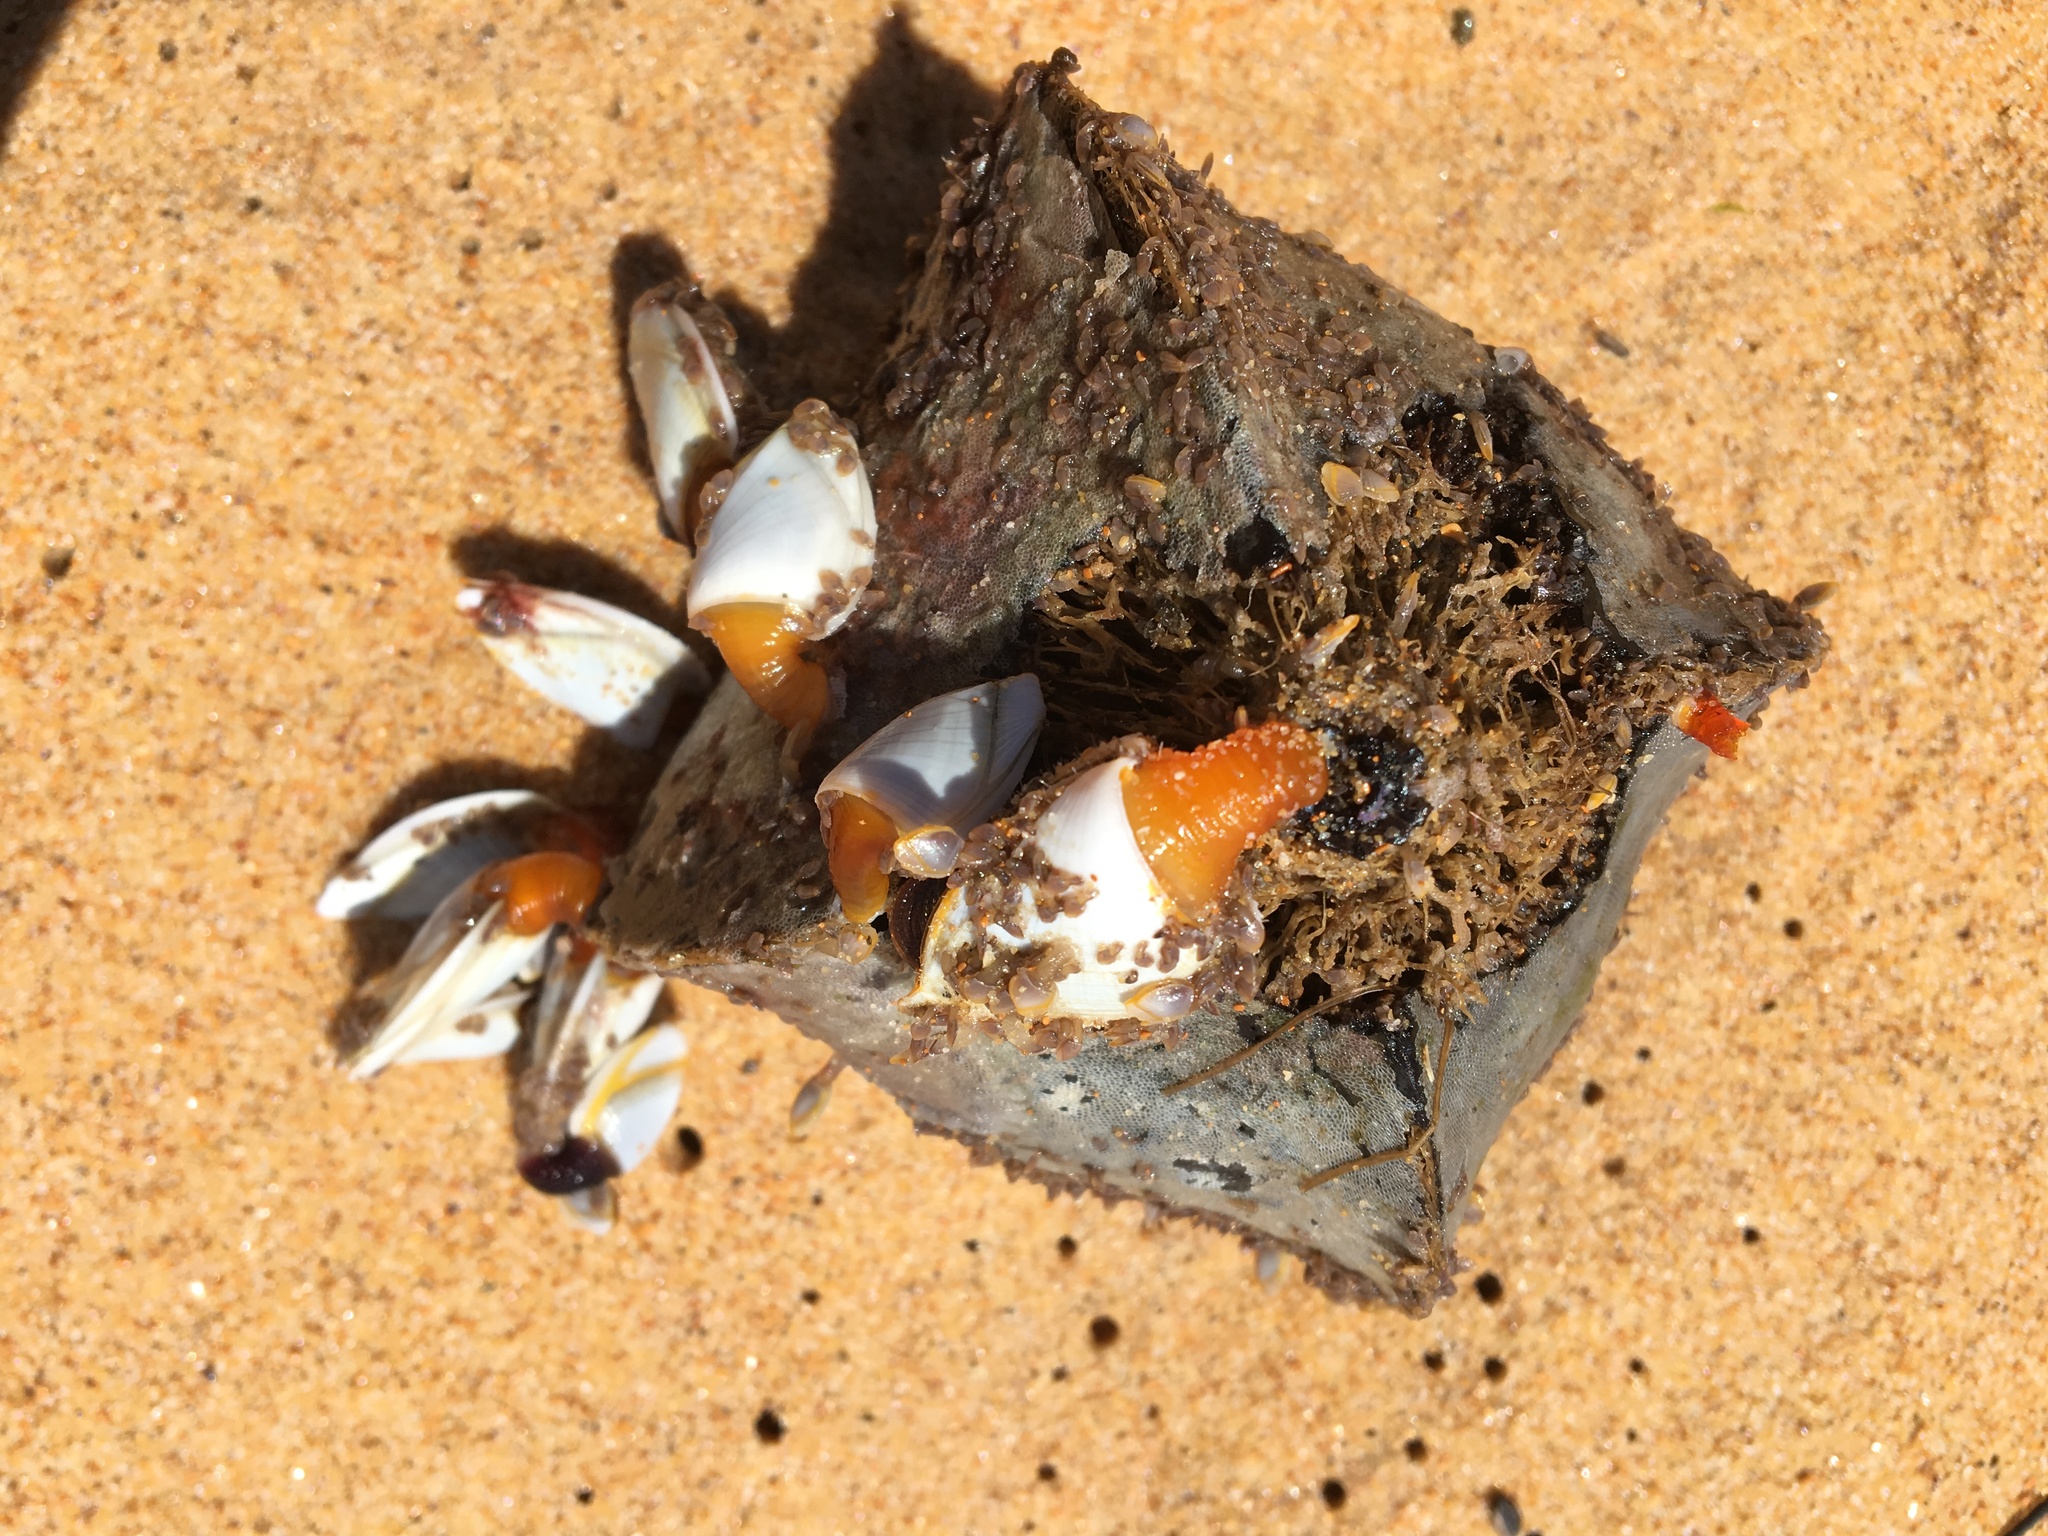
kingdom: Animalia
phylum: Arthropoda
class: Maxillopoda
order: Pedunculata
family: Lepadidae
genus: Lepas
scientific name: Lepas anserifera
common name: Goose barnacle
